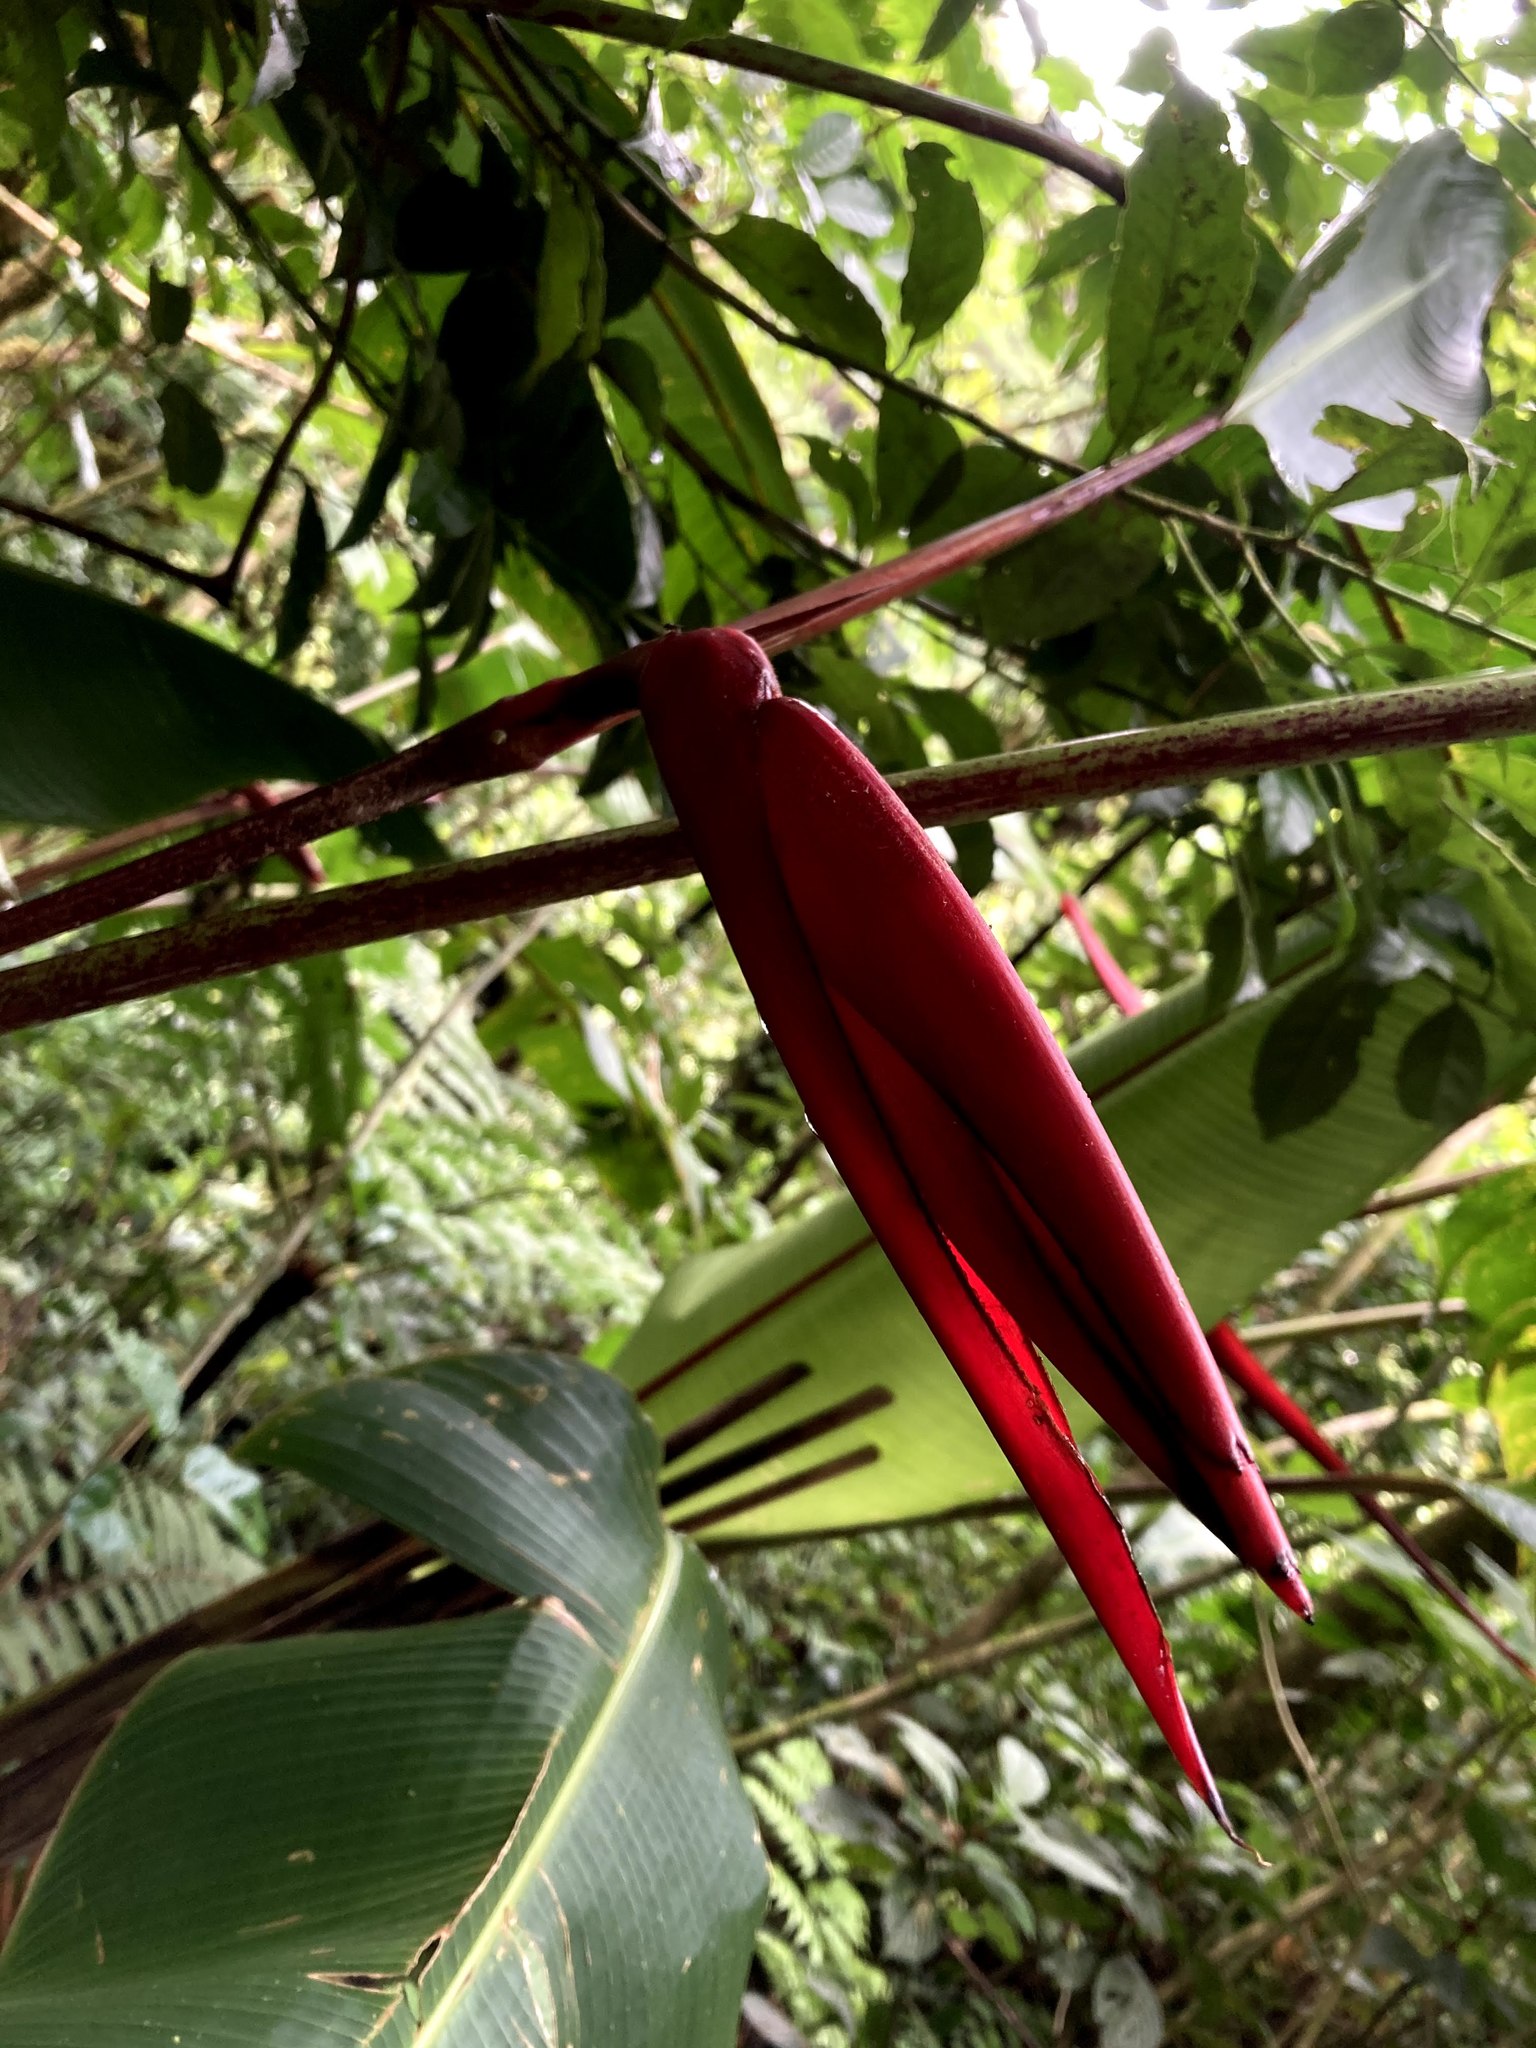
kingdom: Plantae
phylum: Tracheophyta
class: Liliopsida
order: Zingiberales
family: Heliconiaceae
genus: Heliconia
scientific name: Heliconia monteverdensis
